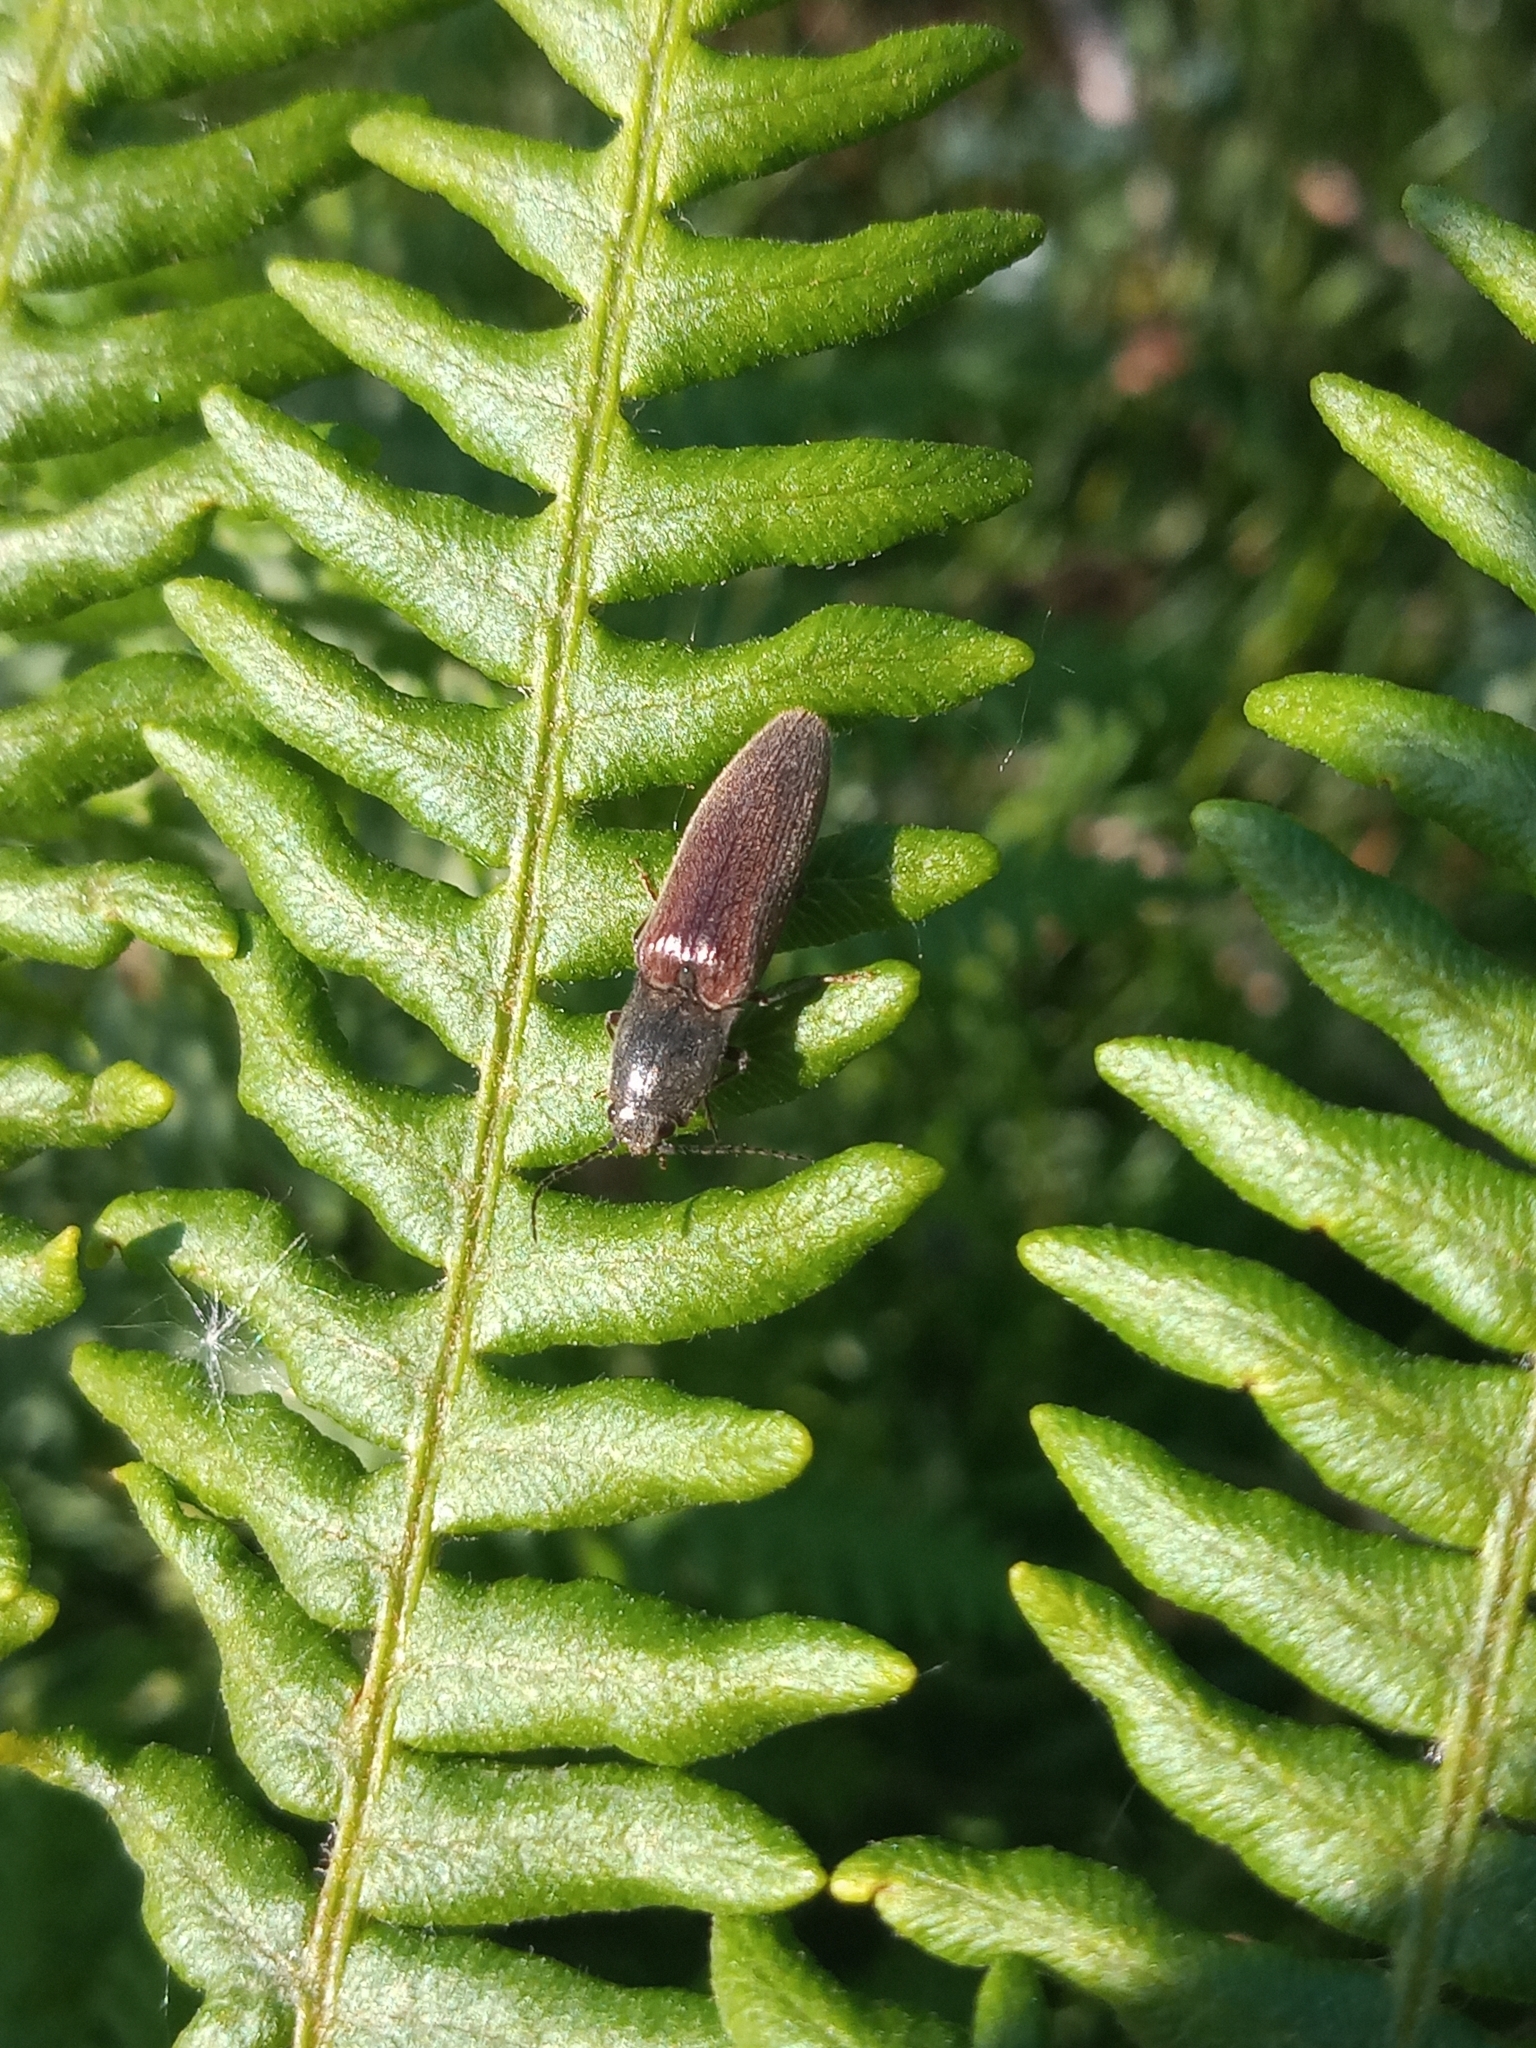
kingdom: Animalia
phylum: Arthropoda
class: Insecta
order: Coleoptera
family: Elateridae
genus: Athous
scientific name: Athous haemorrhoidalis
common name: Red-brown click beetle
